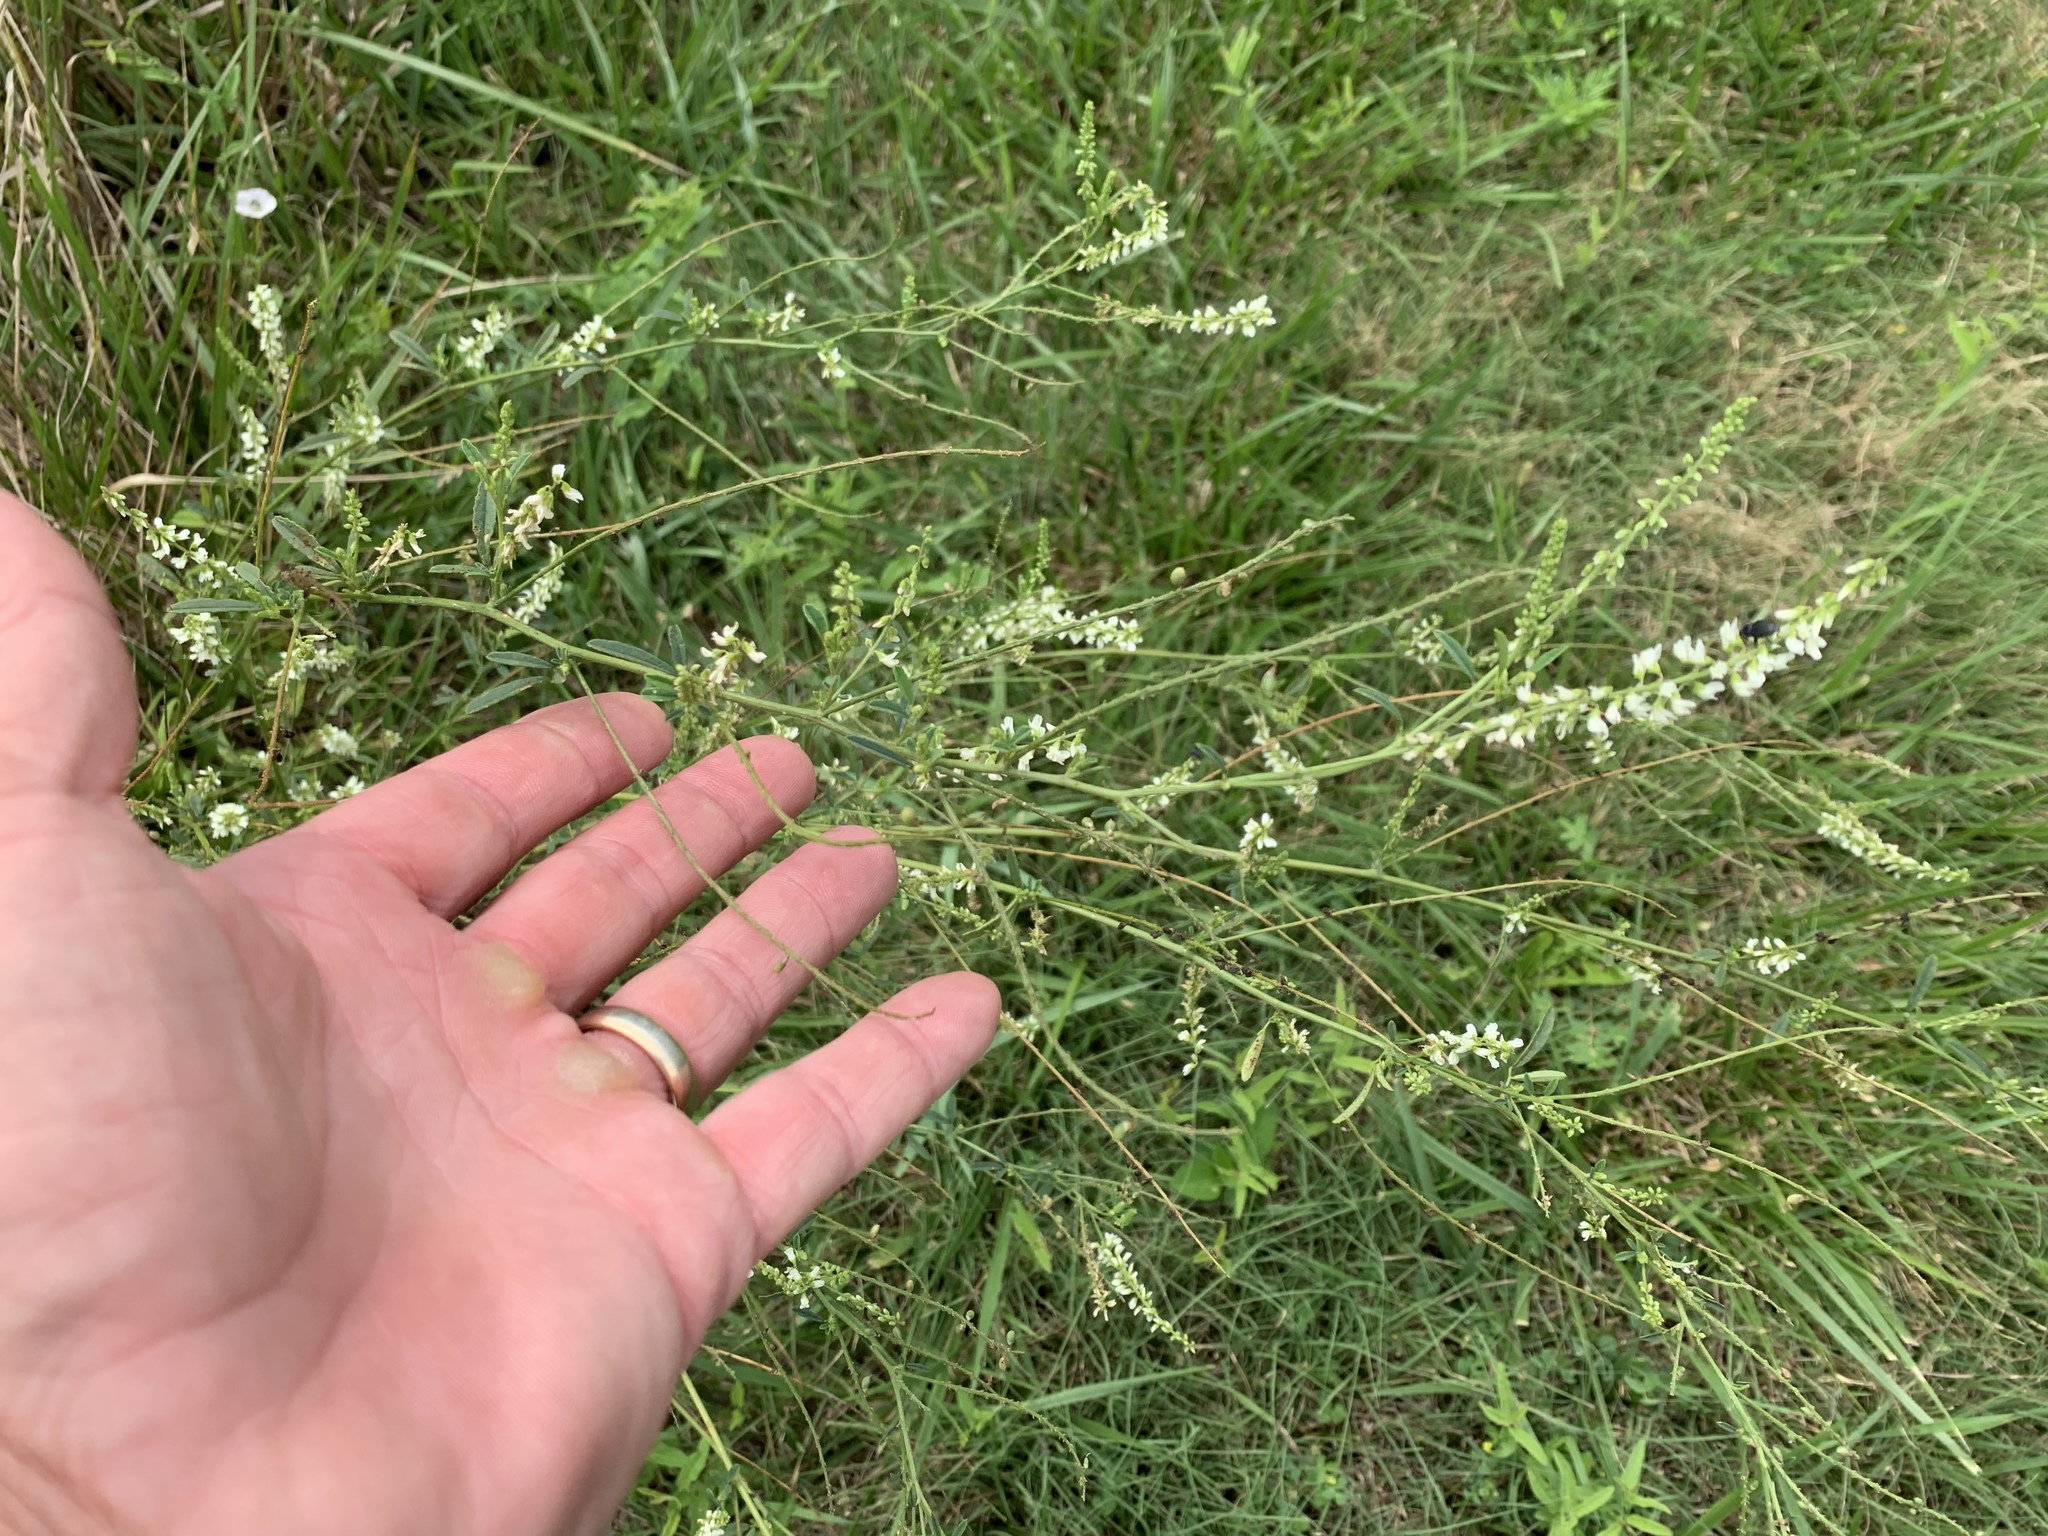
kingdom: Plantae
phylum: Tracheophyta
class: Magnoliopsida
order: Fabales
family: Fabaceae
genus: Melilotus
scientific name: Melilotus albus
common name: White melilot
